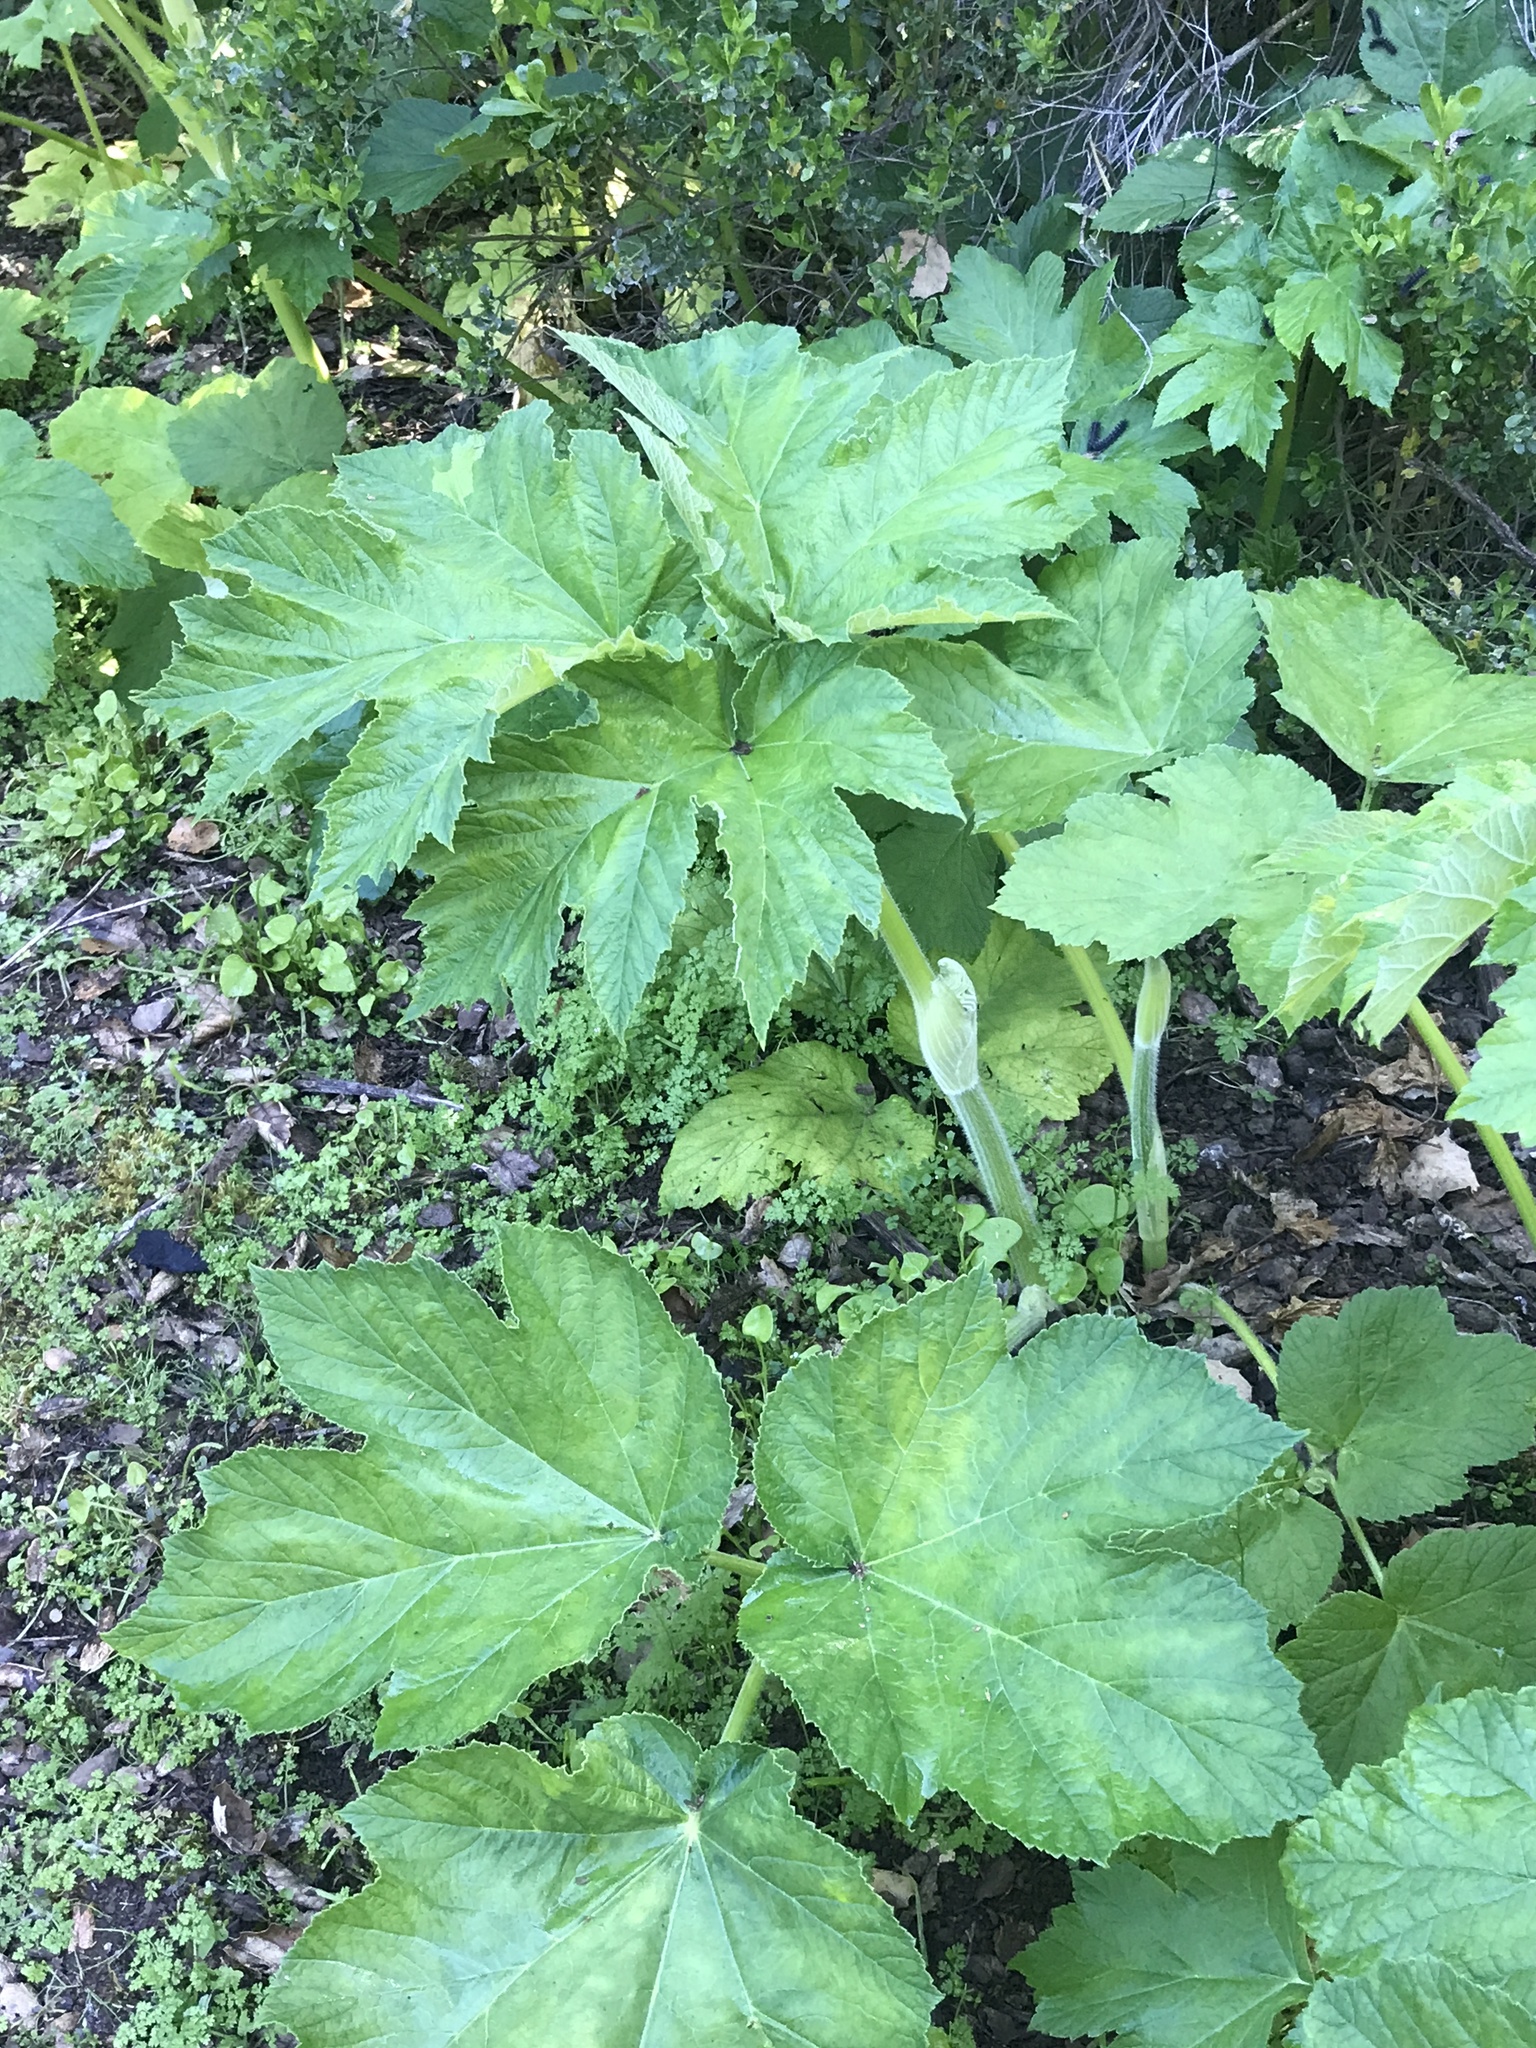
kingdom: Plantae
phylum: Tracheophyta
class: Magnoliopsida
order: Apiales
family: Apiaceae
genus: Heracleum
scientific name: Heracleum maximum
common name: American cow parsnip
